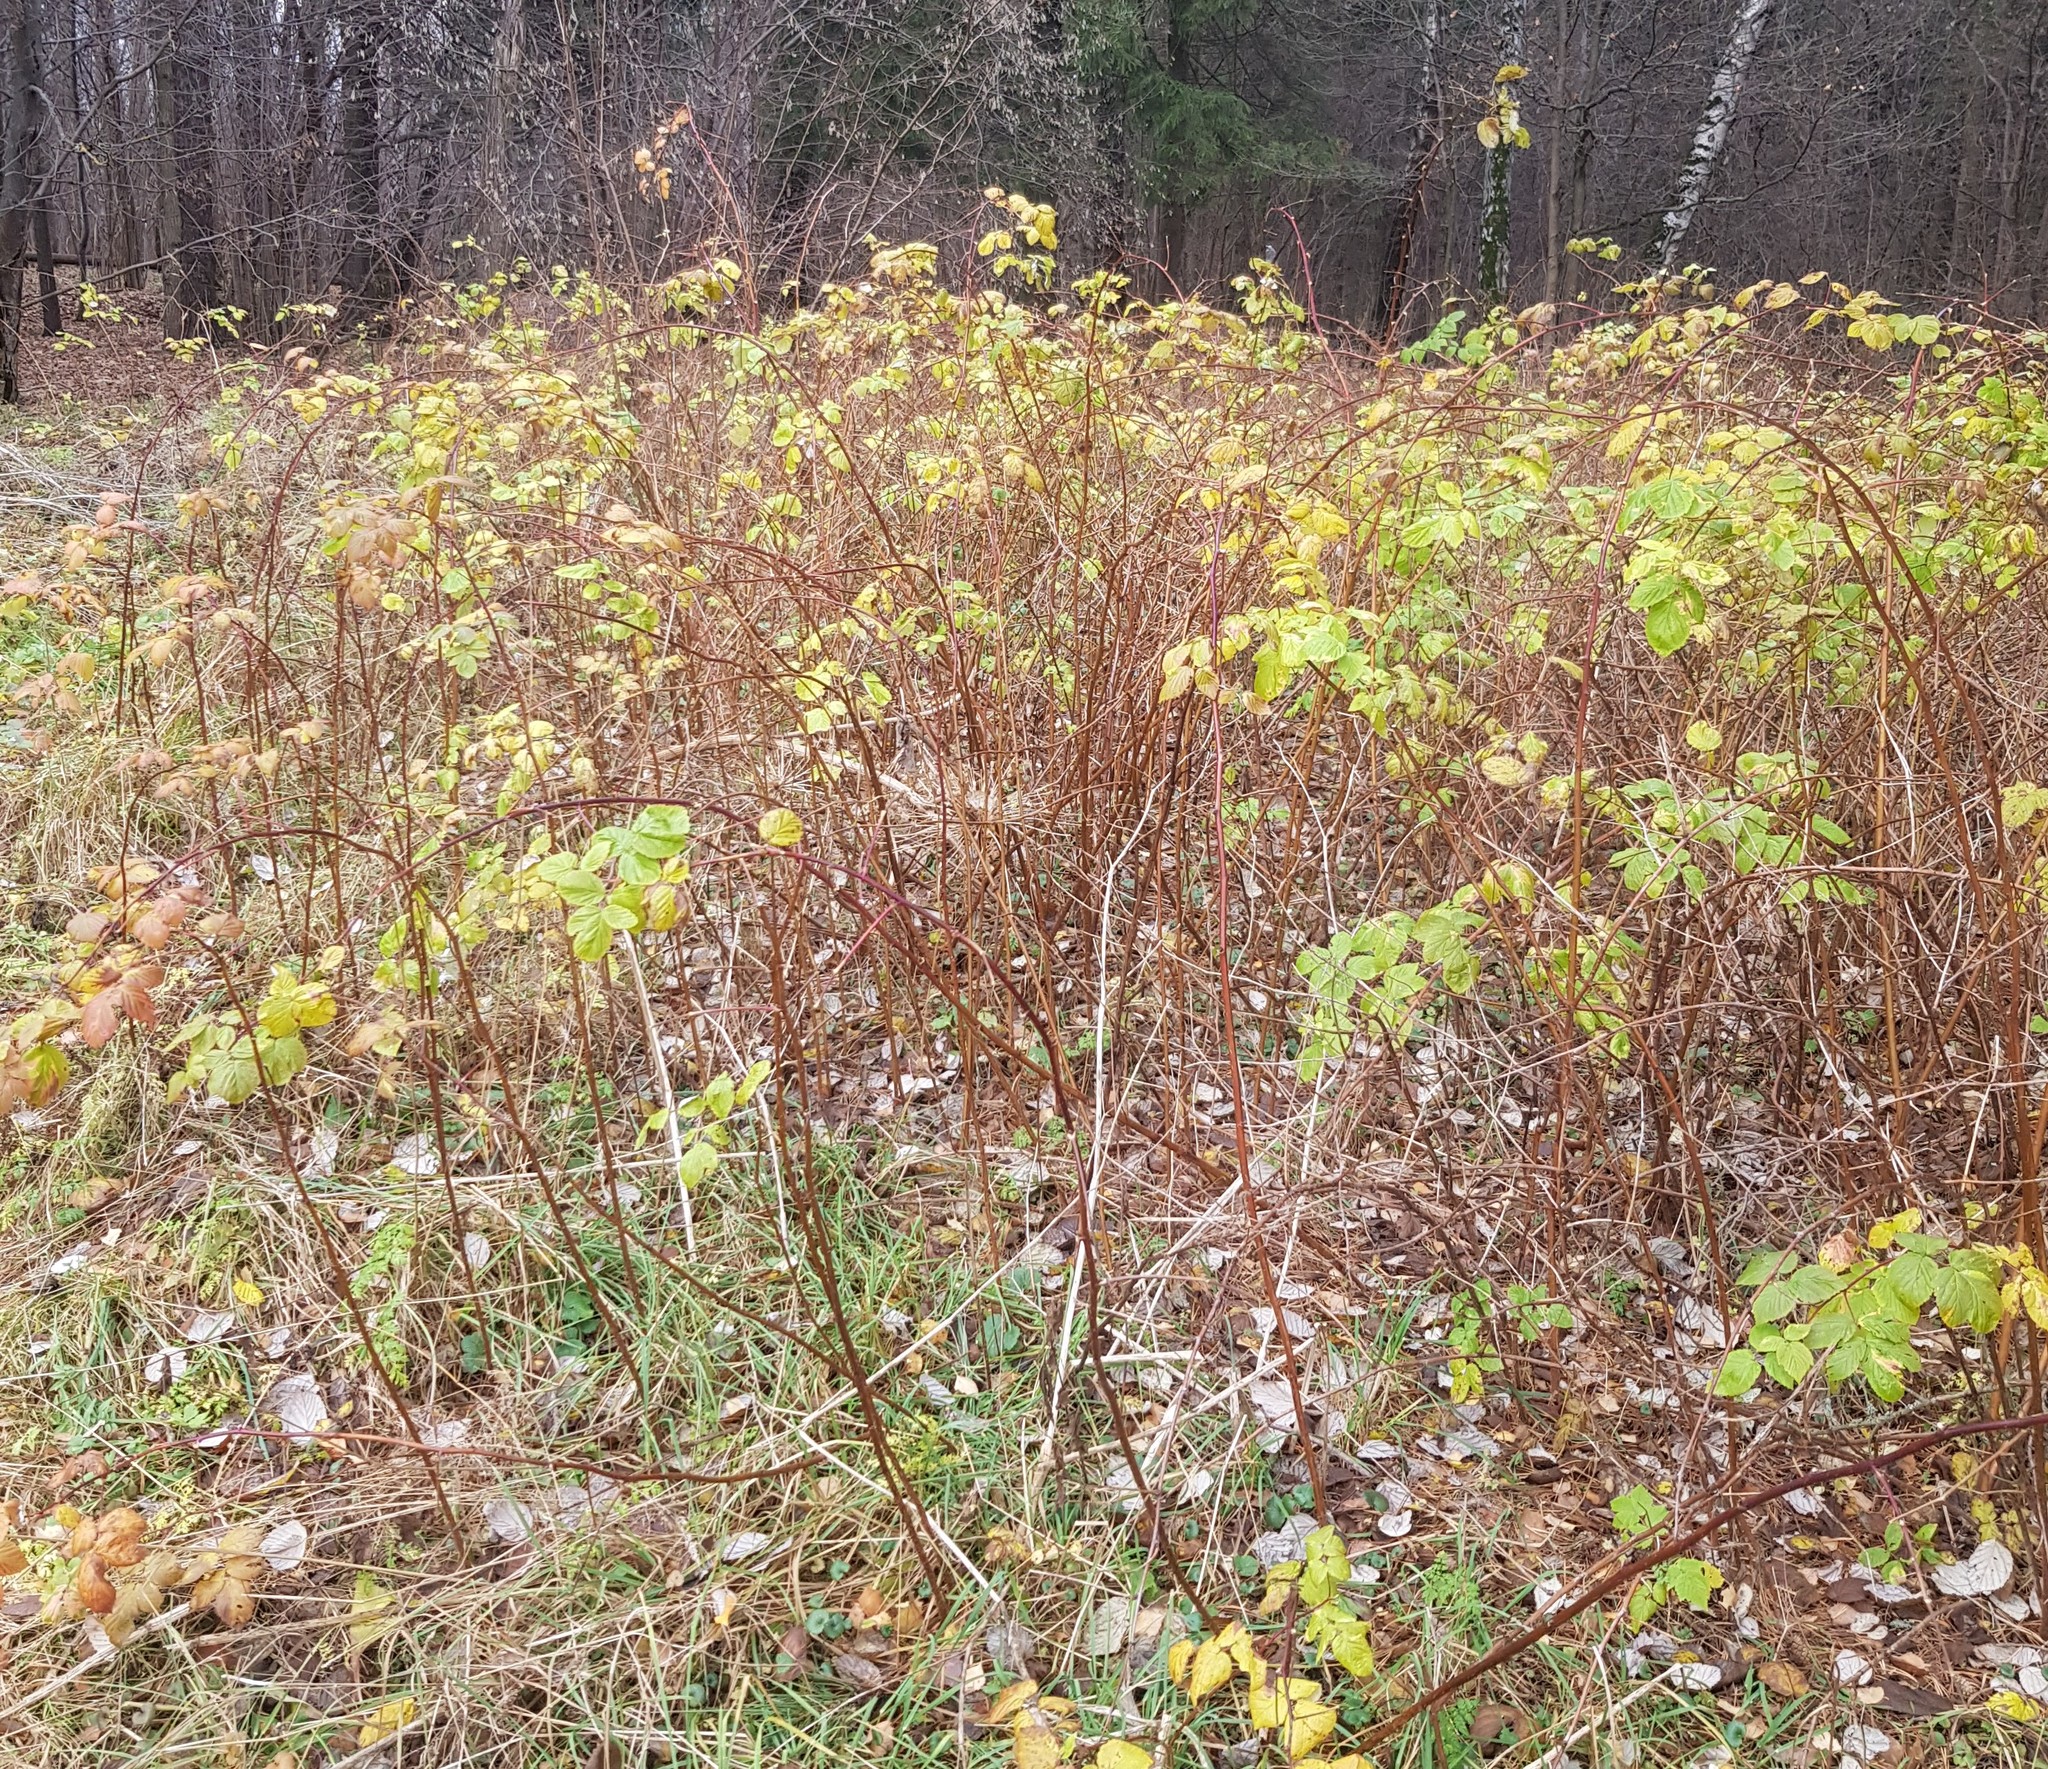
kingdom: Plantae
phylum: Tracheophyta
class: Magnoliopsida
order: Rosales
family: Rosaceae
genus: Rubus
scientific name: Rubus idaeus
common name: Raspberry
